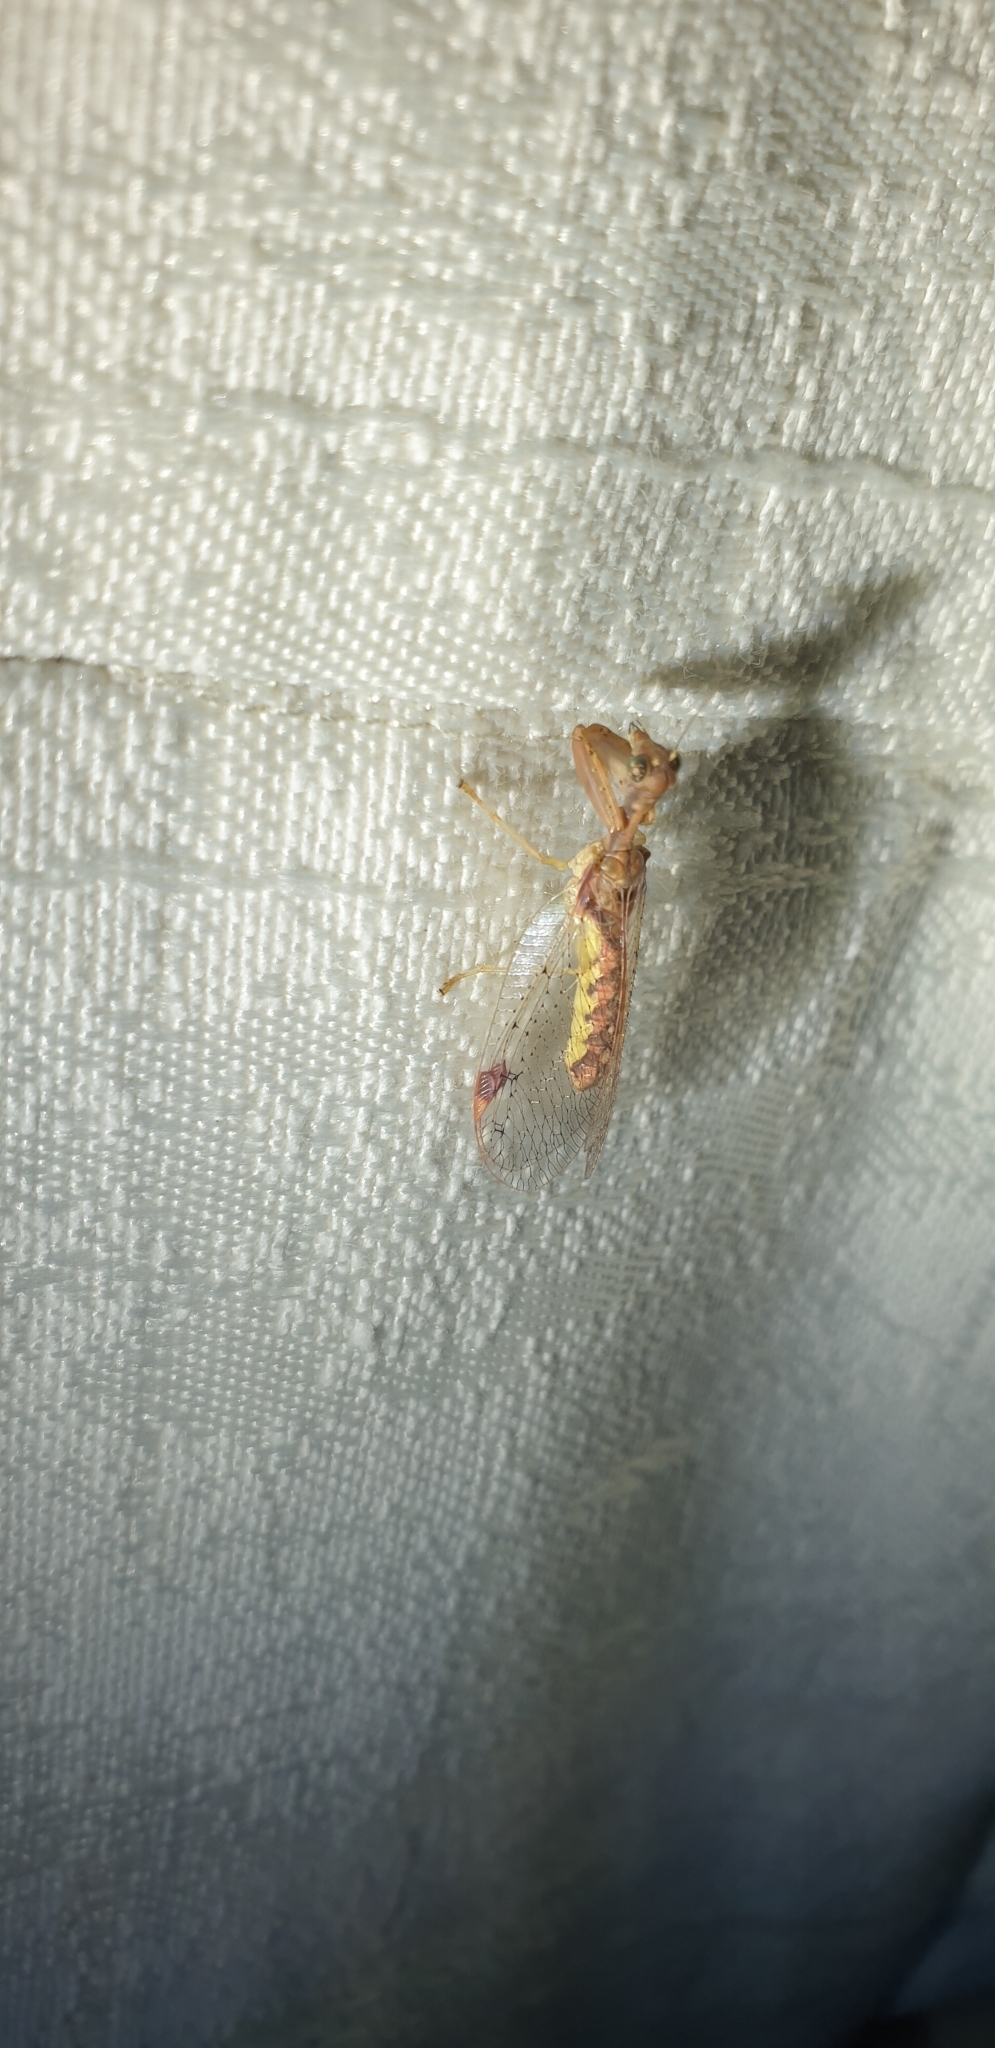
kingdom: Animalia
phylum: Arthropoda
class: Insecta
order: Neuroptera
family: Mantispidae
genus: Ditaxis
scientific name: Ditaxis biseriata
